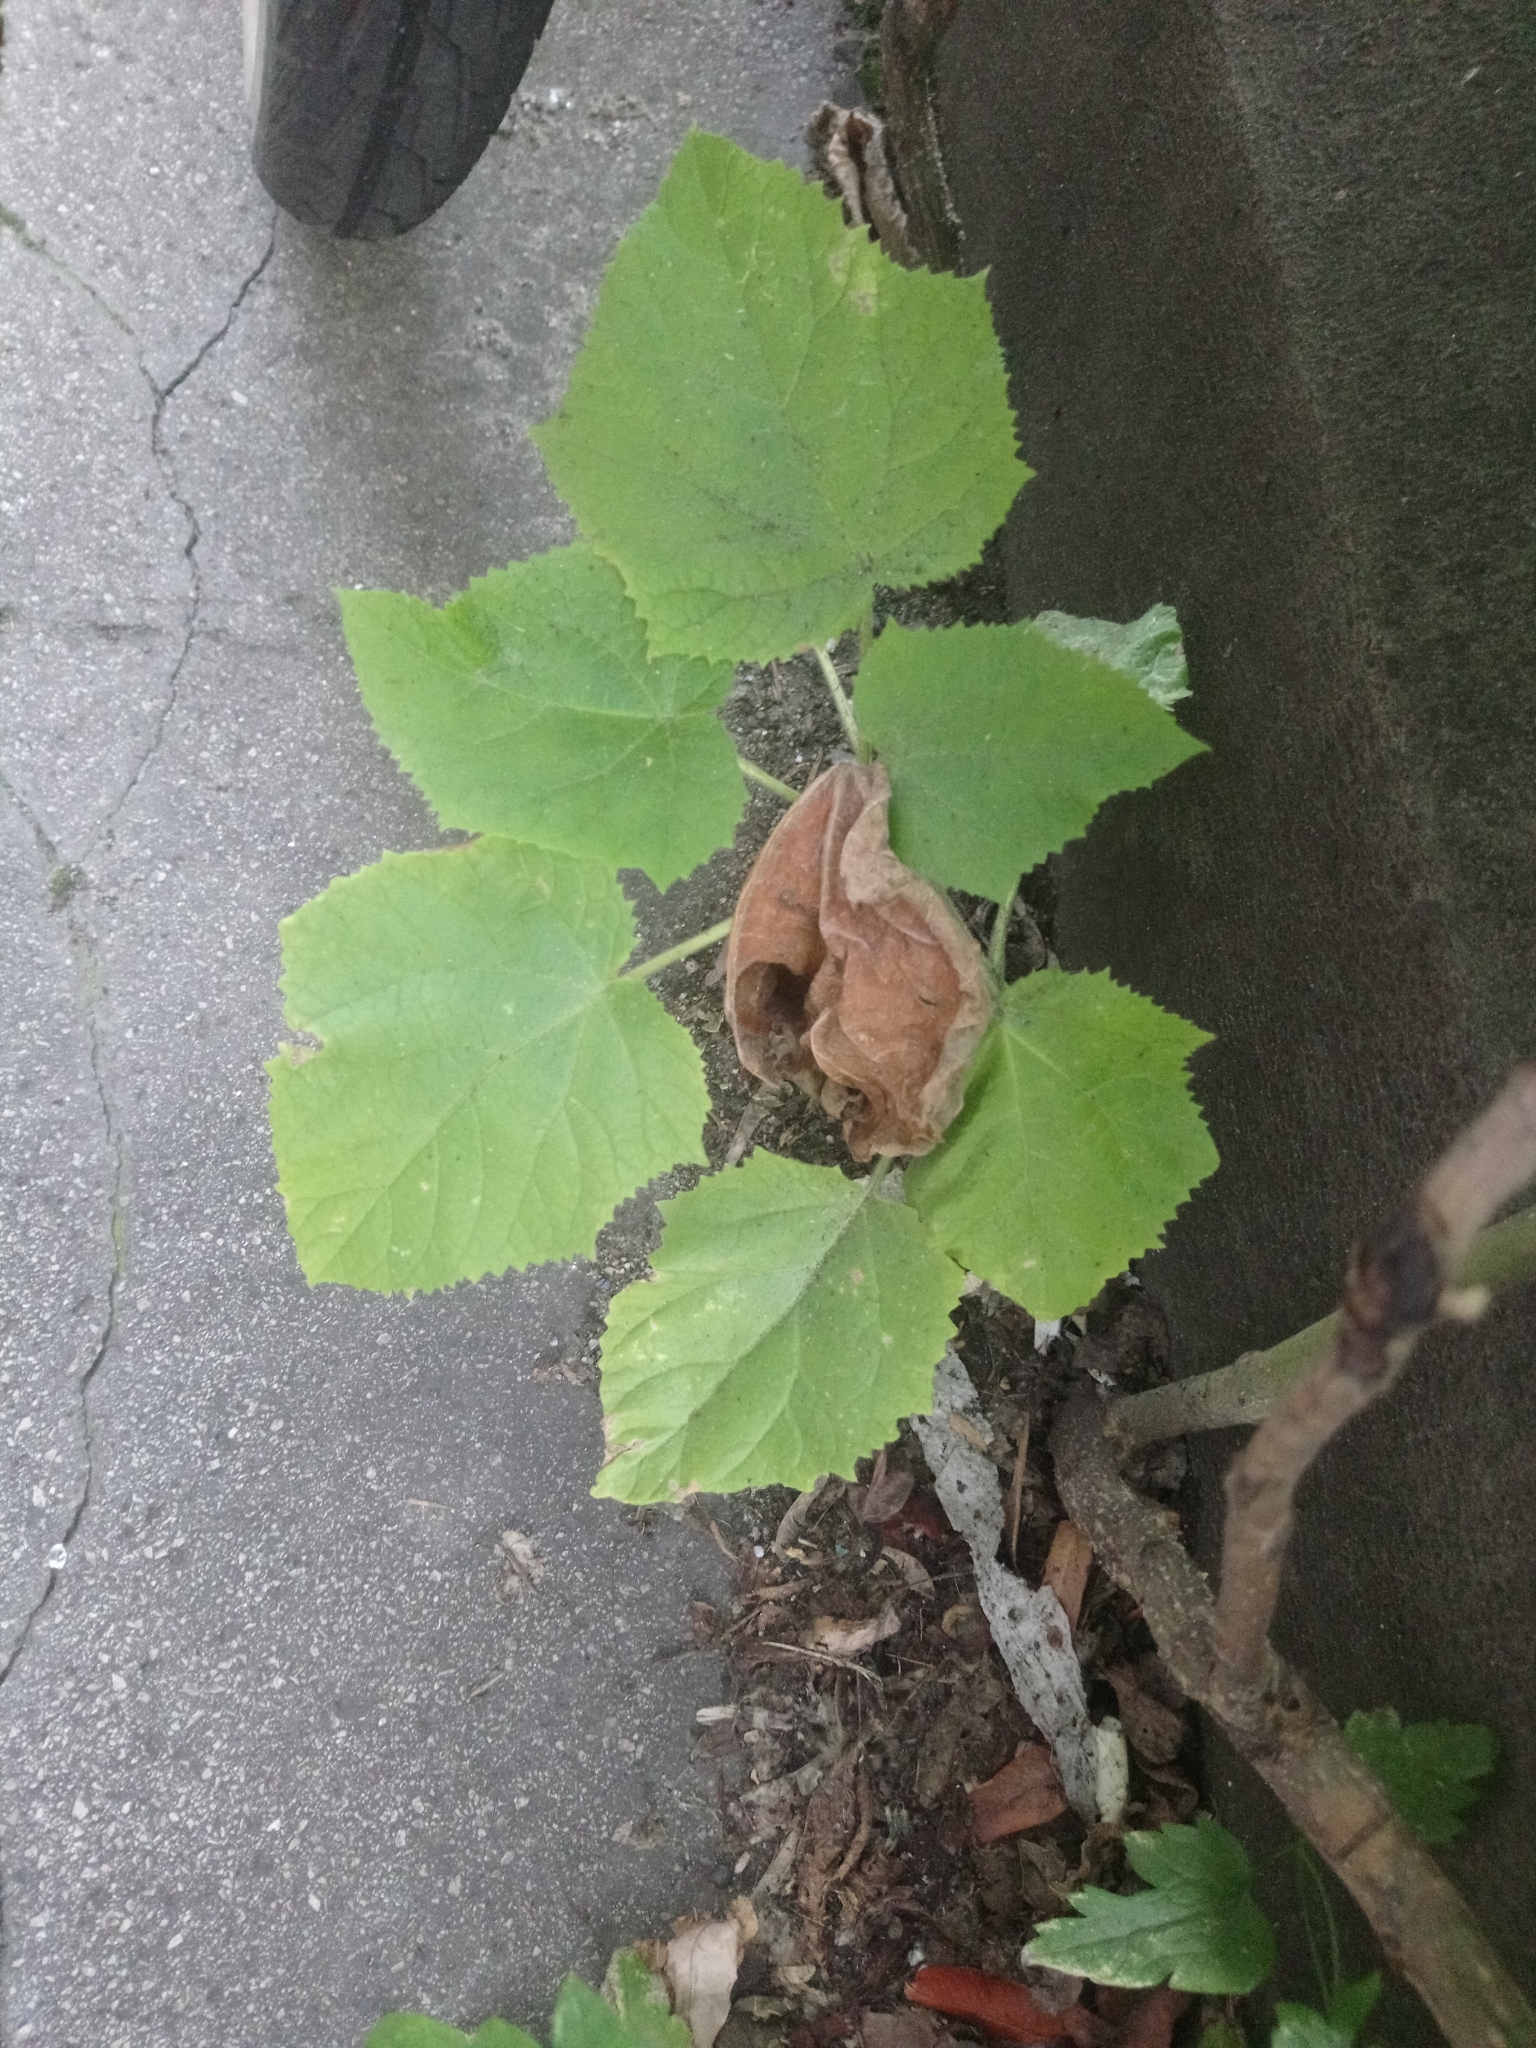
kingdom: Plantae
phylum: Tracheophyta
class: Magnoliopsida
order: Lamiales
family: Paulowniaceae
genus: Paulownia
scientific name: Paulownia tomentosa
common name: Foxglove-tree
